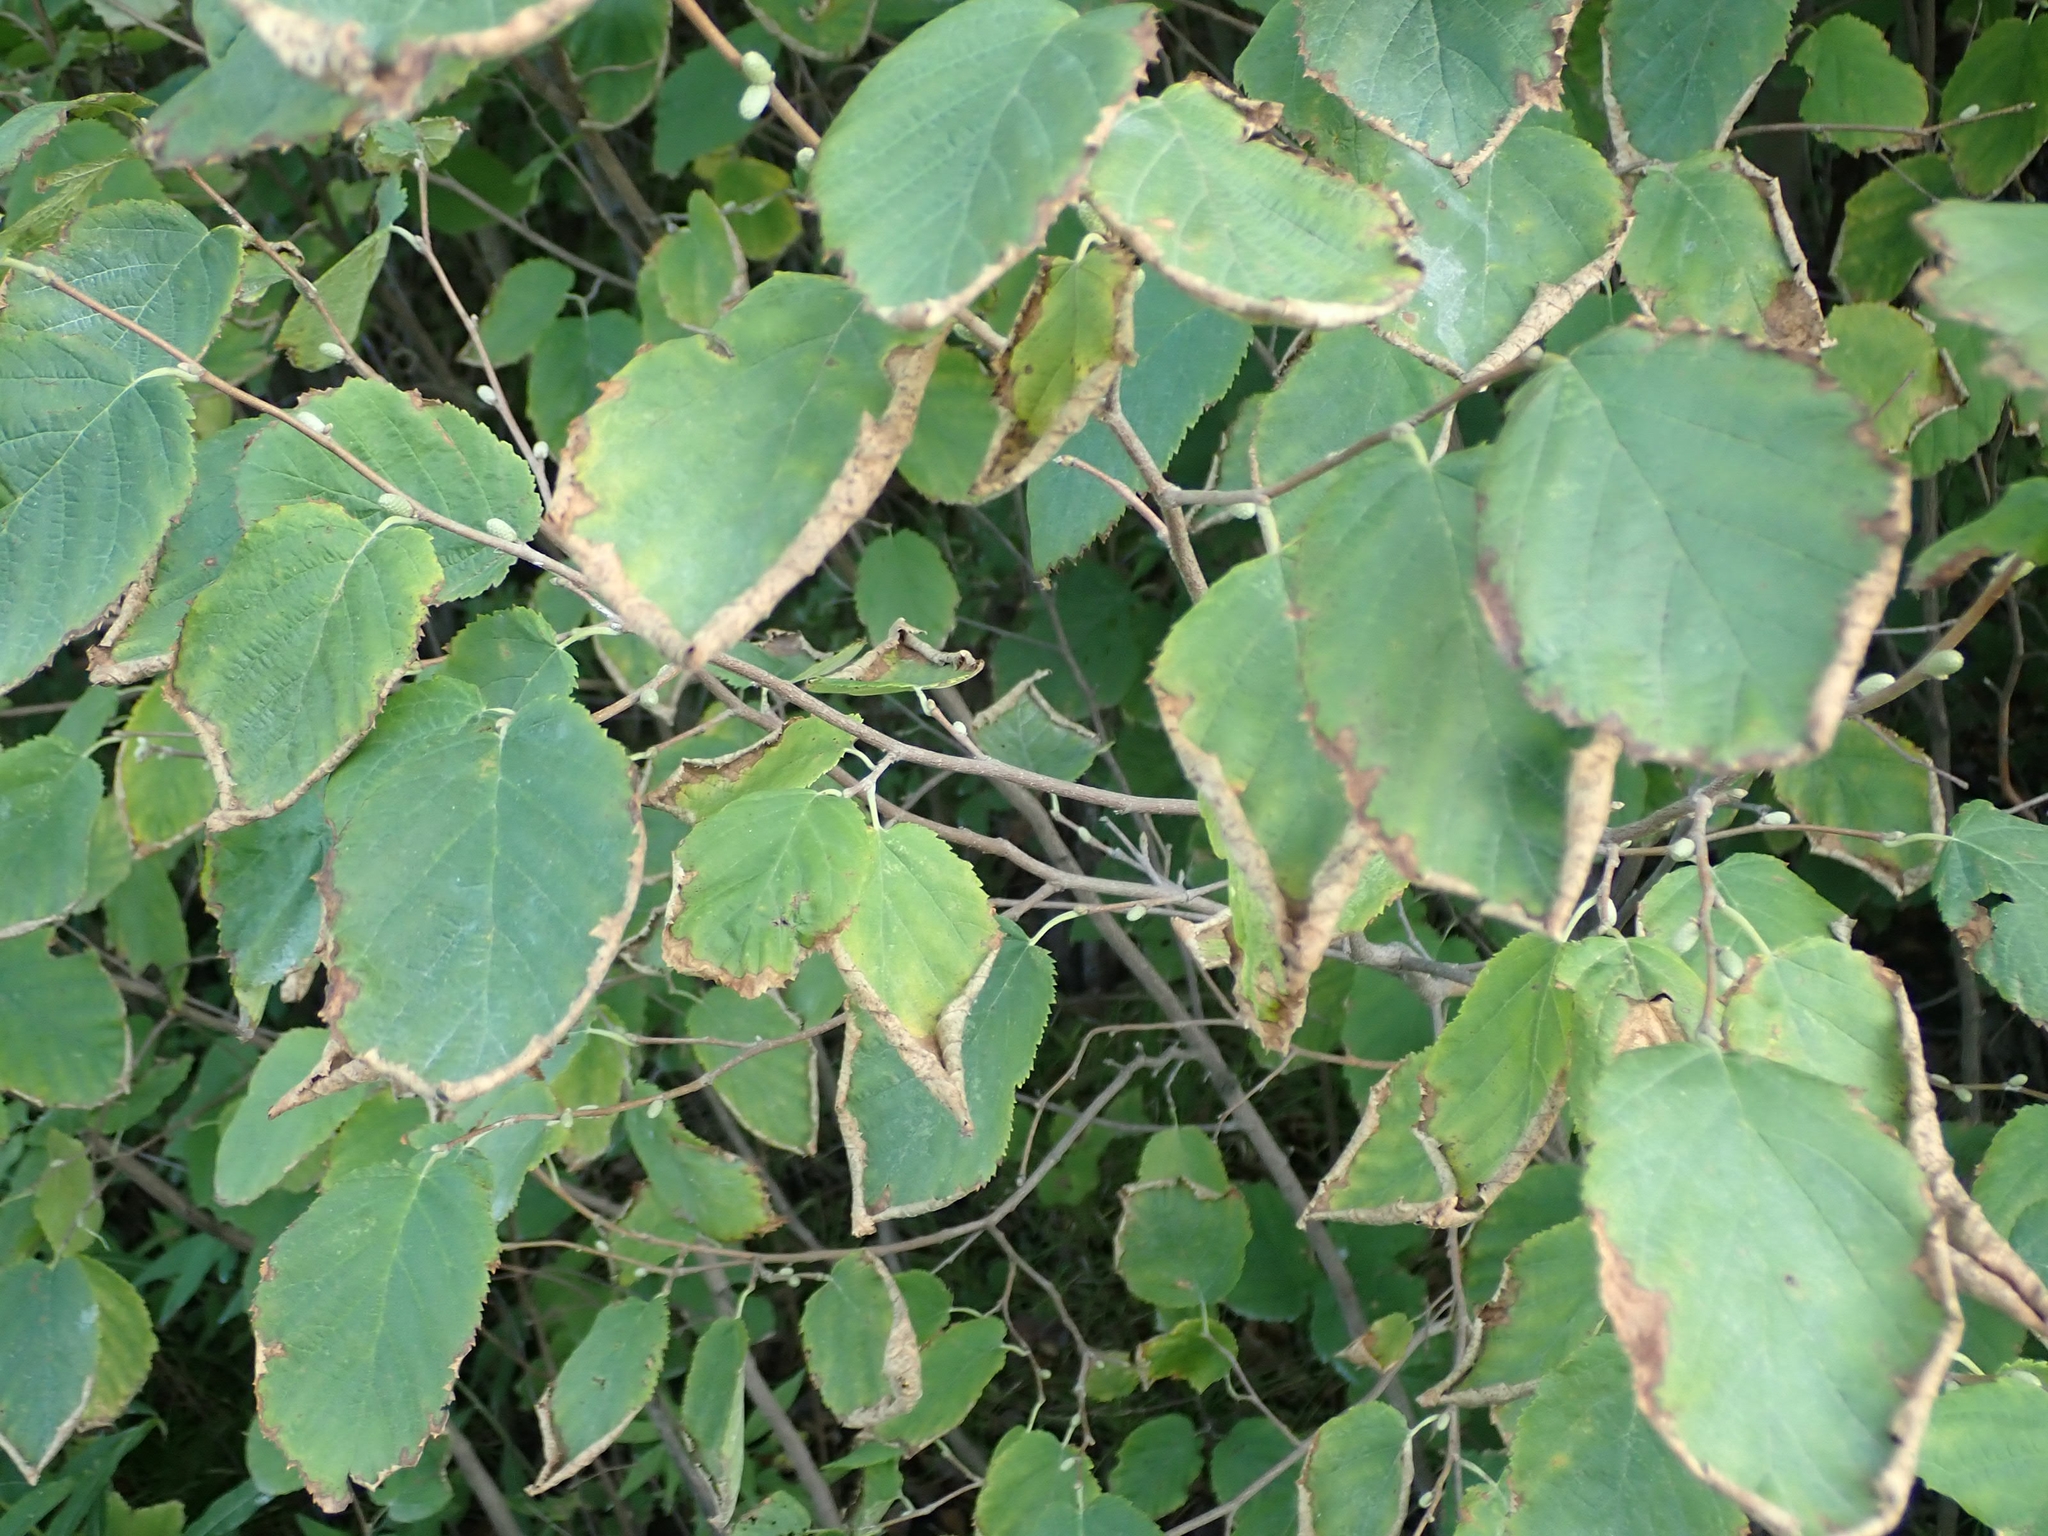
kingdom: Plantae
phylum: Tracheophyta
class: Magnoliopsida
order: Fagales
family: Betulaceae
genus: Corylus
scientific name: Corylus cornuta
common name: Beaked hazel
